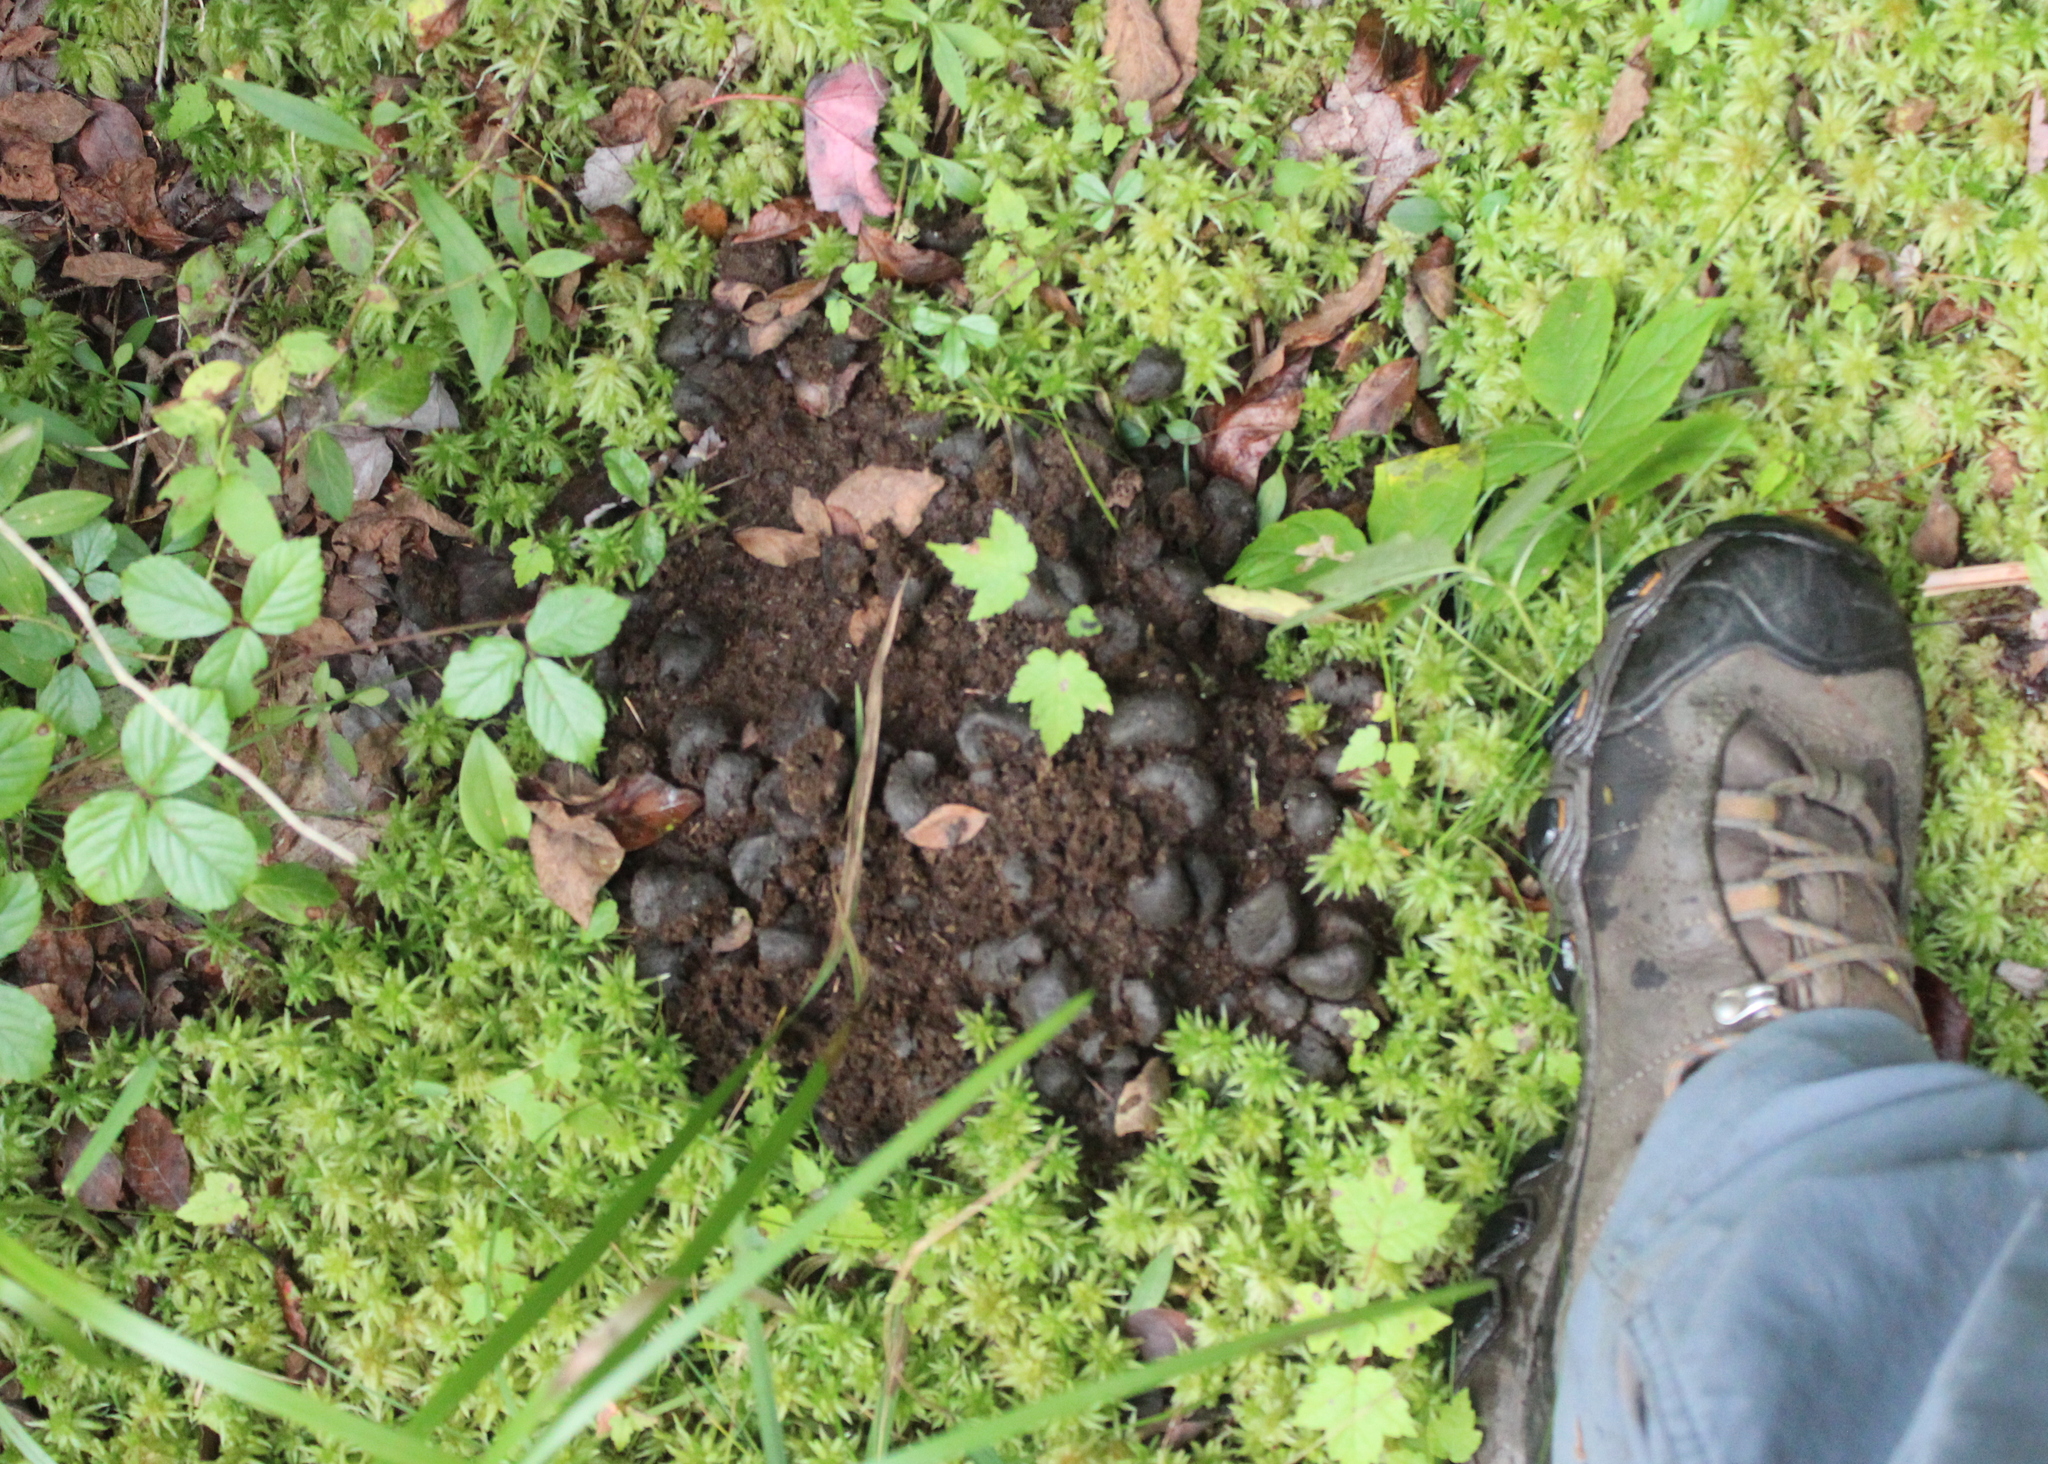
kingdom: Animalia
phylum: Chordata
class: Mammalia
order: Artiodactyla
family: Cervidae
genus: Alces
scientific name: Alces alces
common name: Moose
